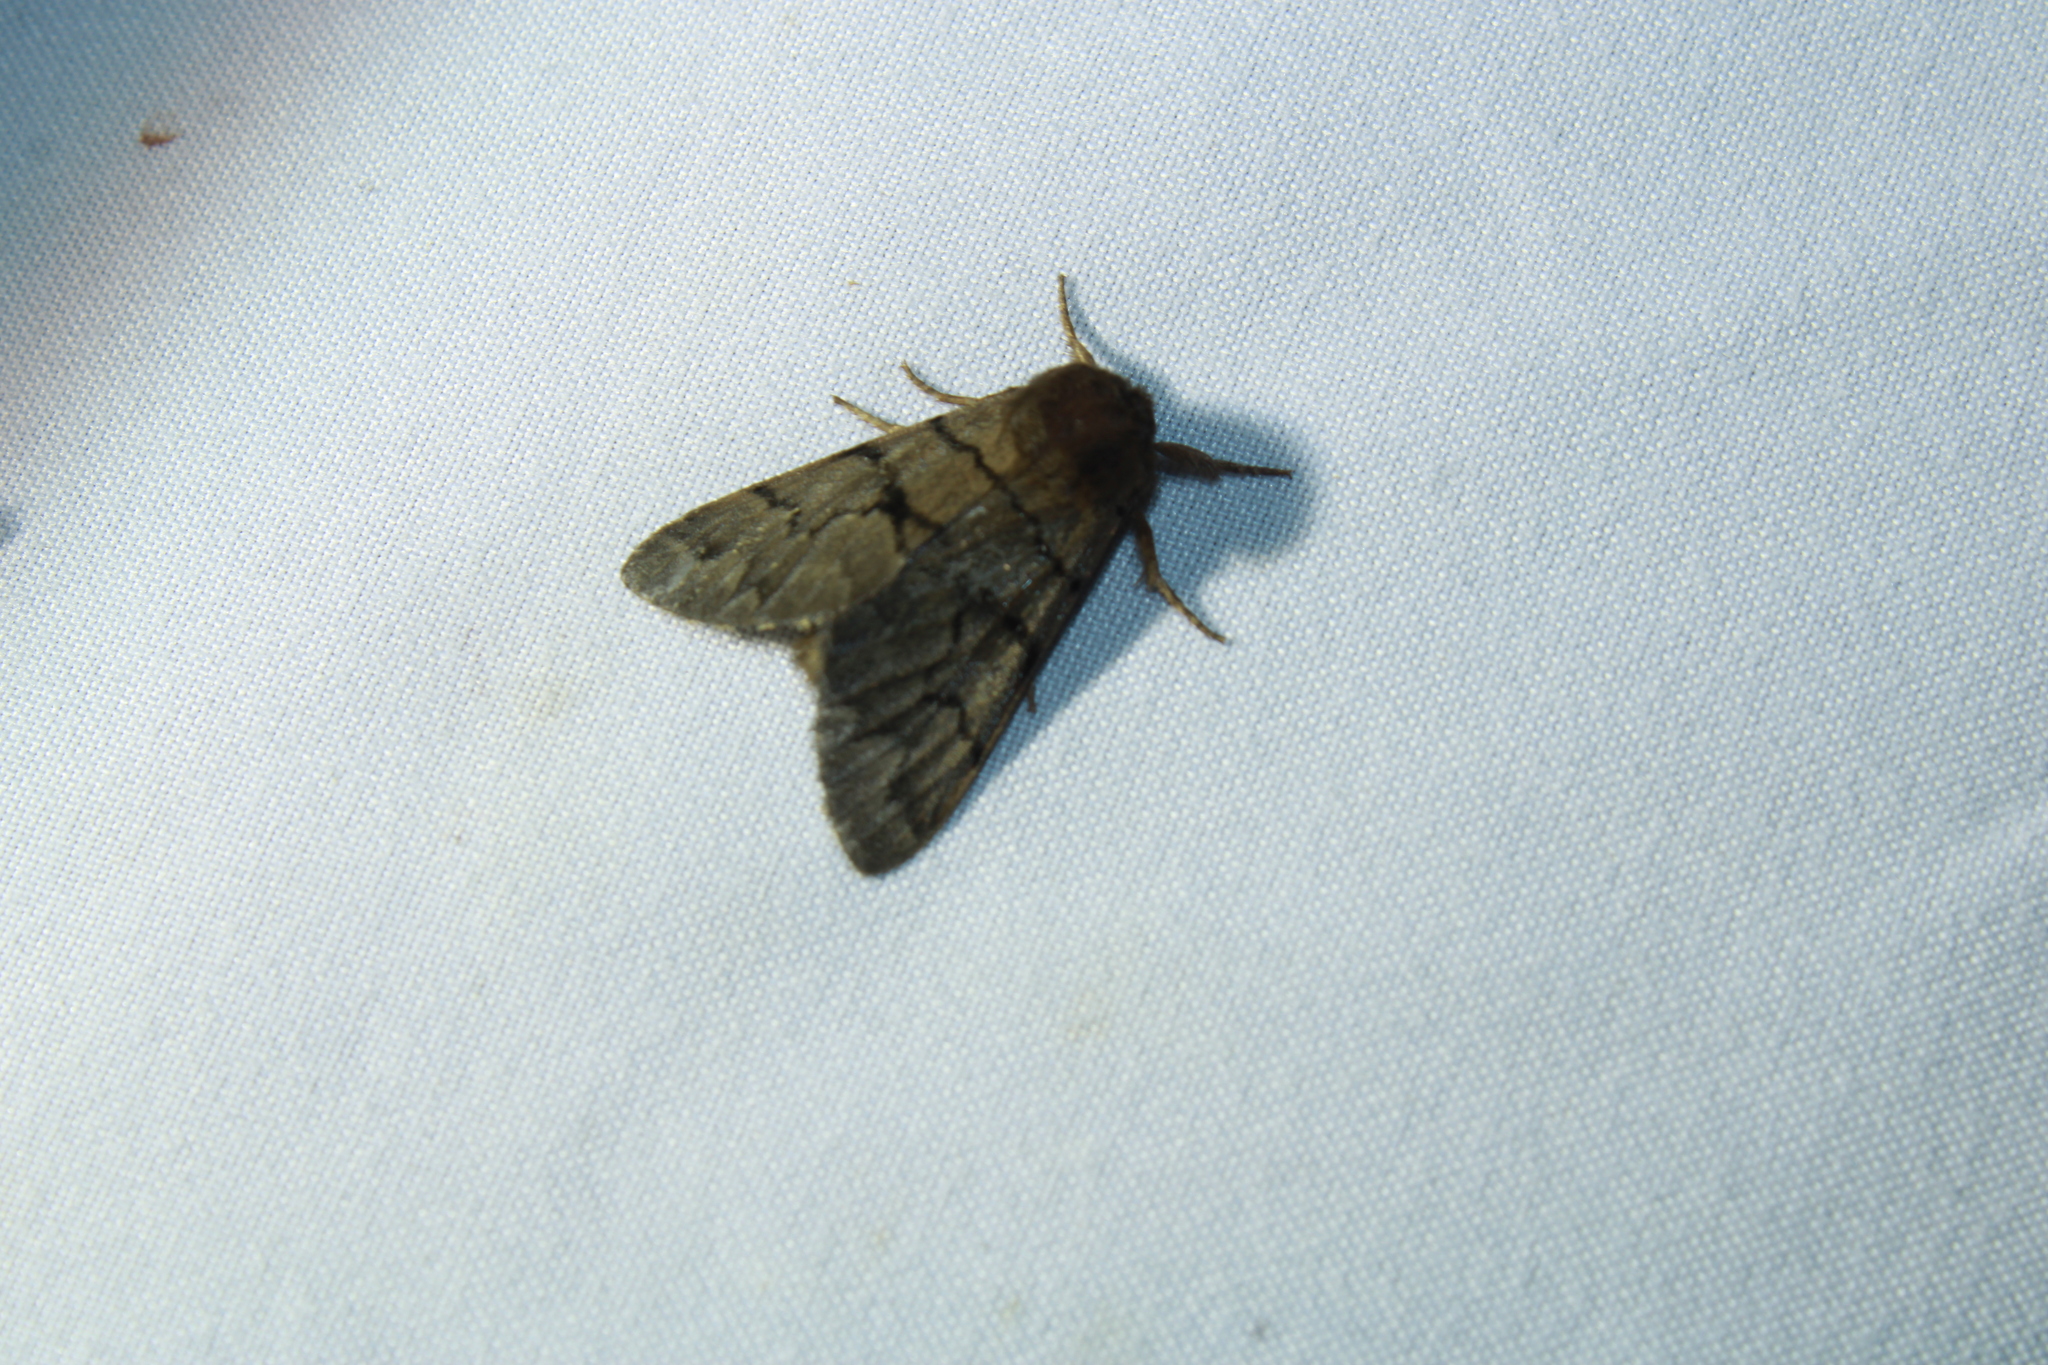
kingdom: Animalia
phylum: Arthropoda
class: Insecta
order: Lepidoptera
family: Noctuidae
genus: Panthea
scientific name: Panthea furcilla
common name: Eastern panthea moth
